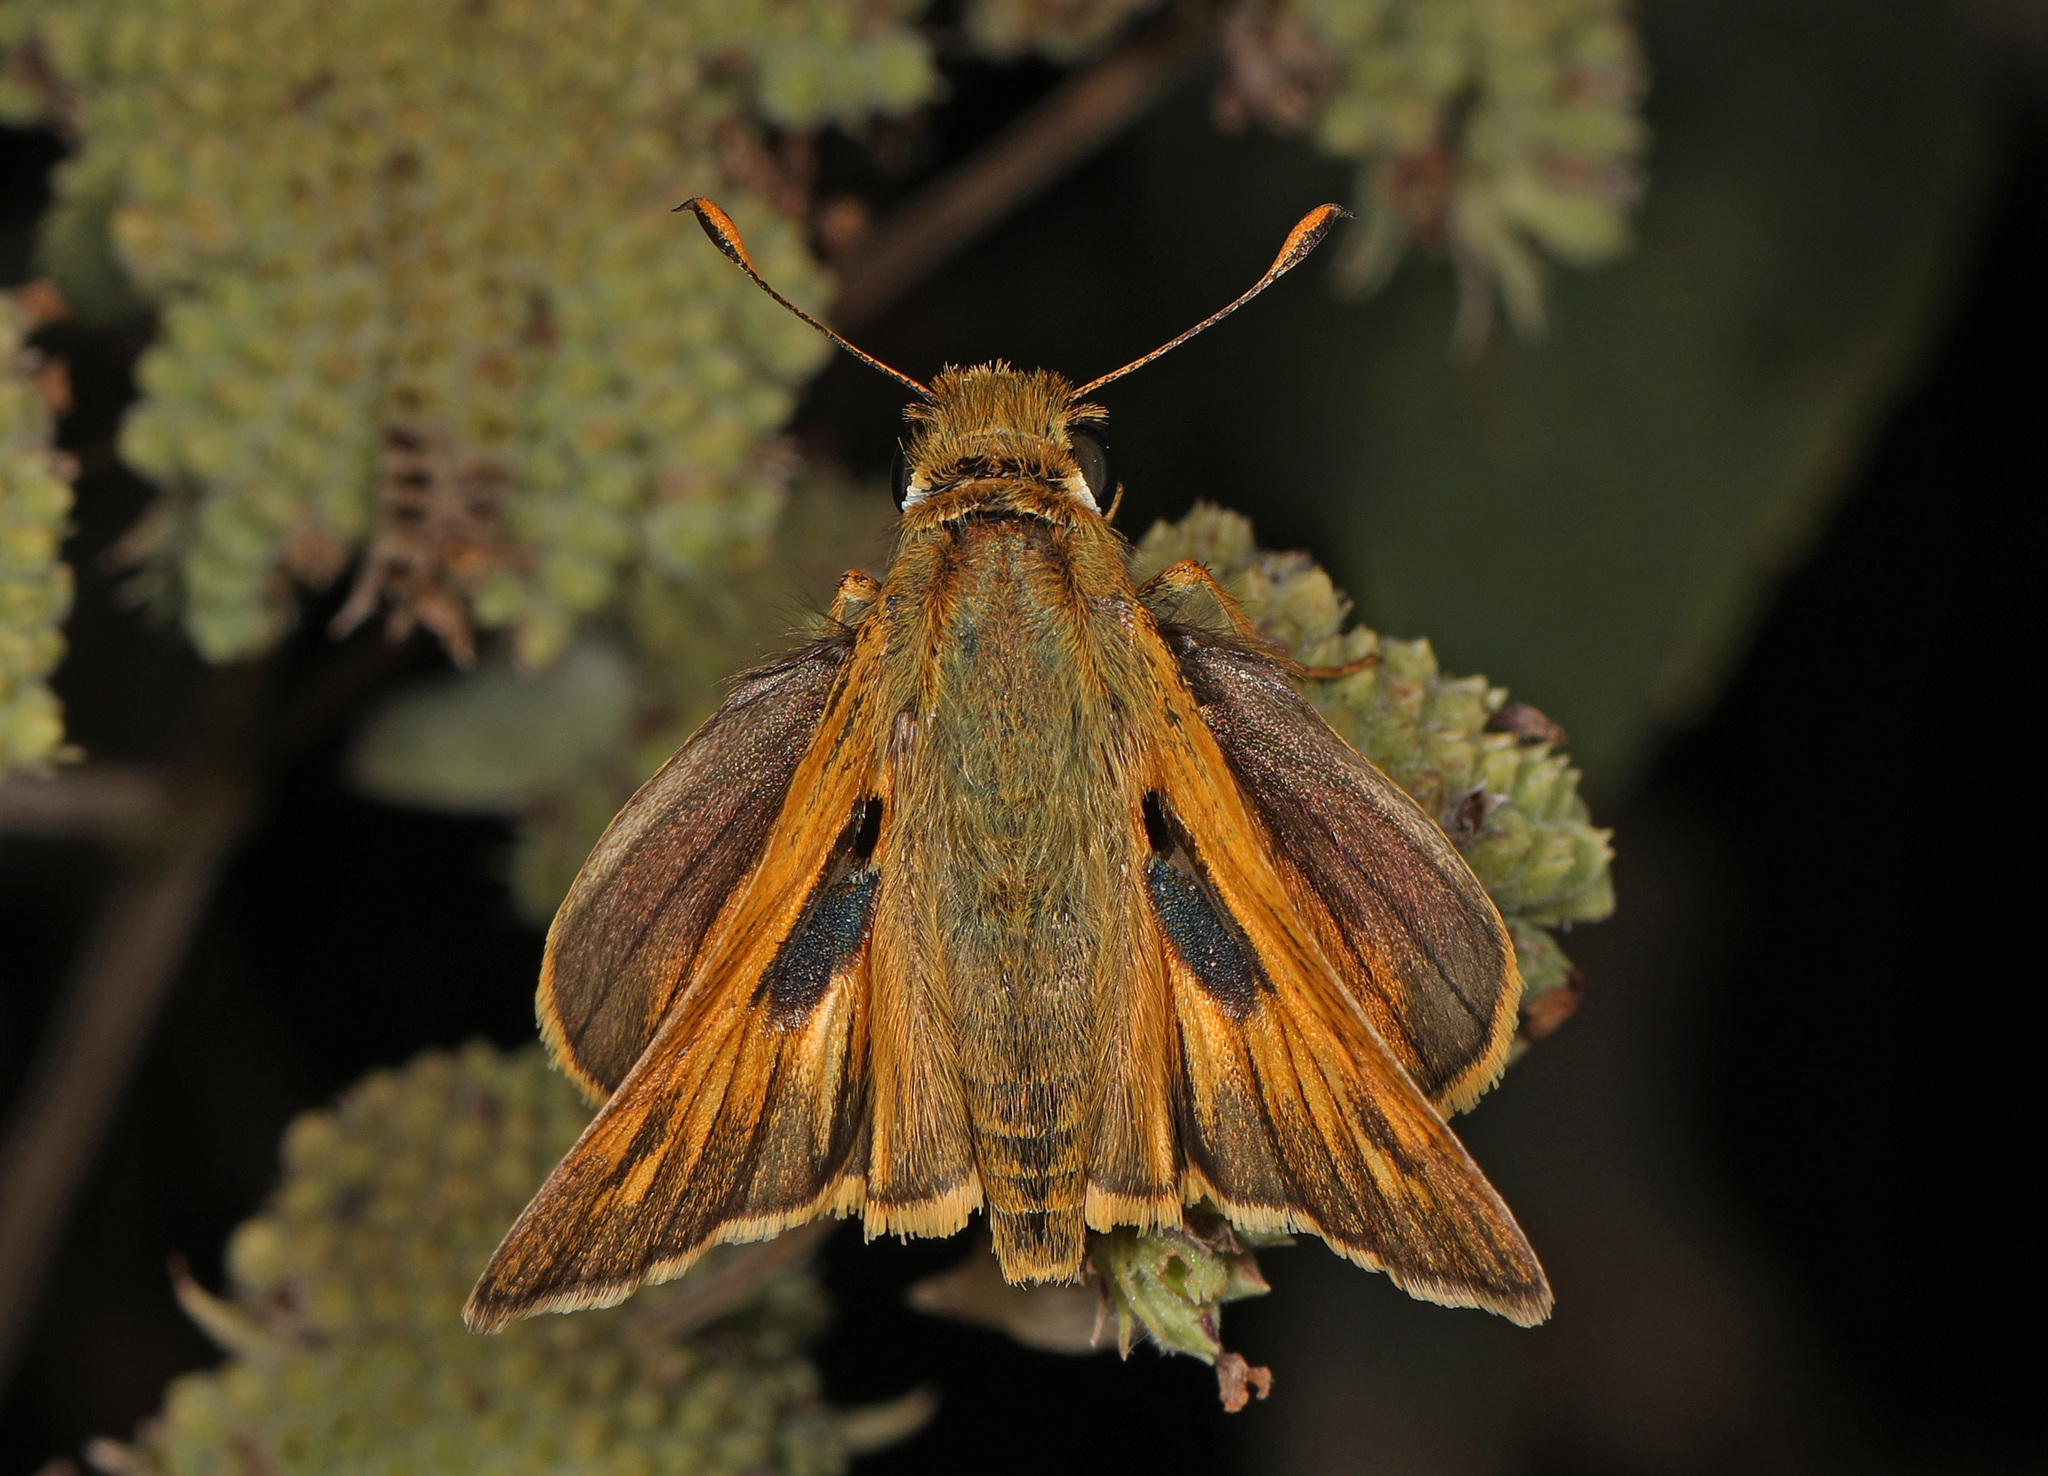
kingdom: Animalia
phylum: Arthropoda
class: Insecta
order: Lepidoptera
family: Hesperiidae
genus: Atalopedes
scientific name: Atalopedes
